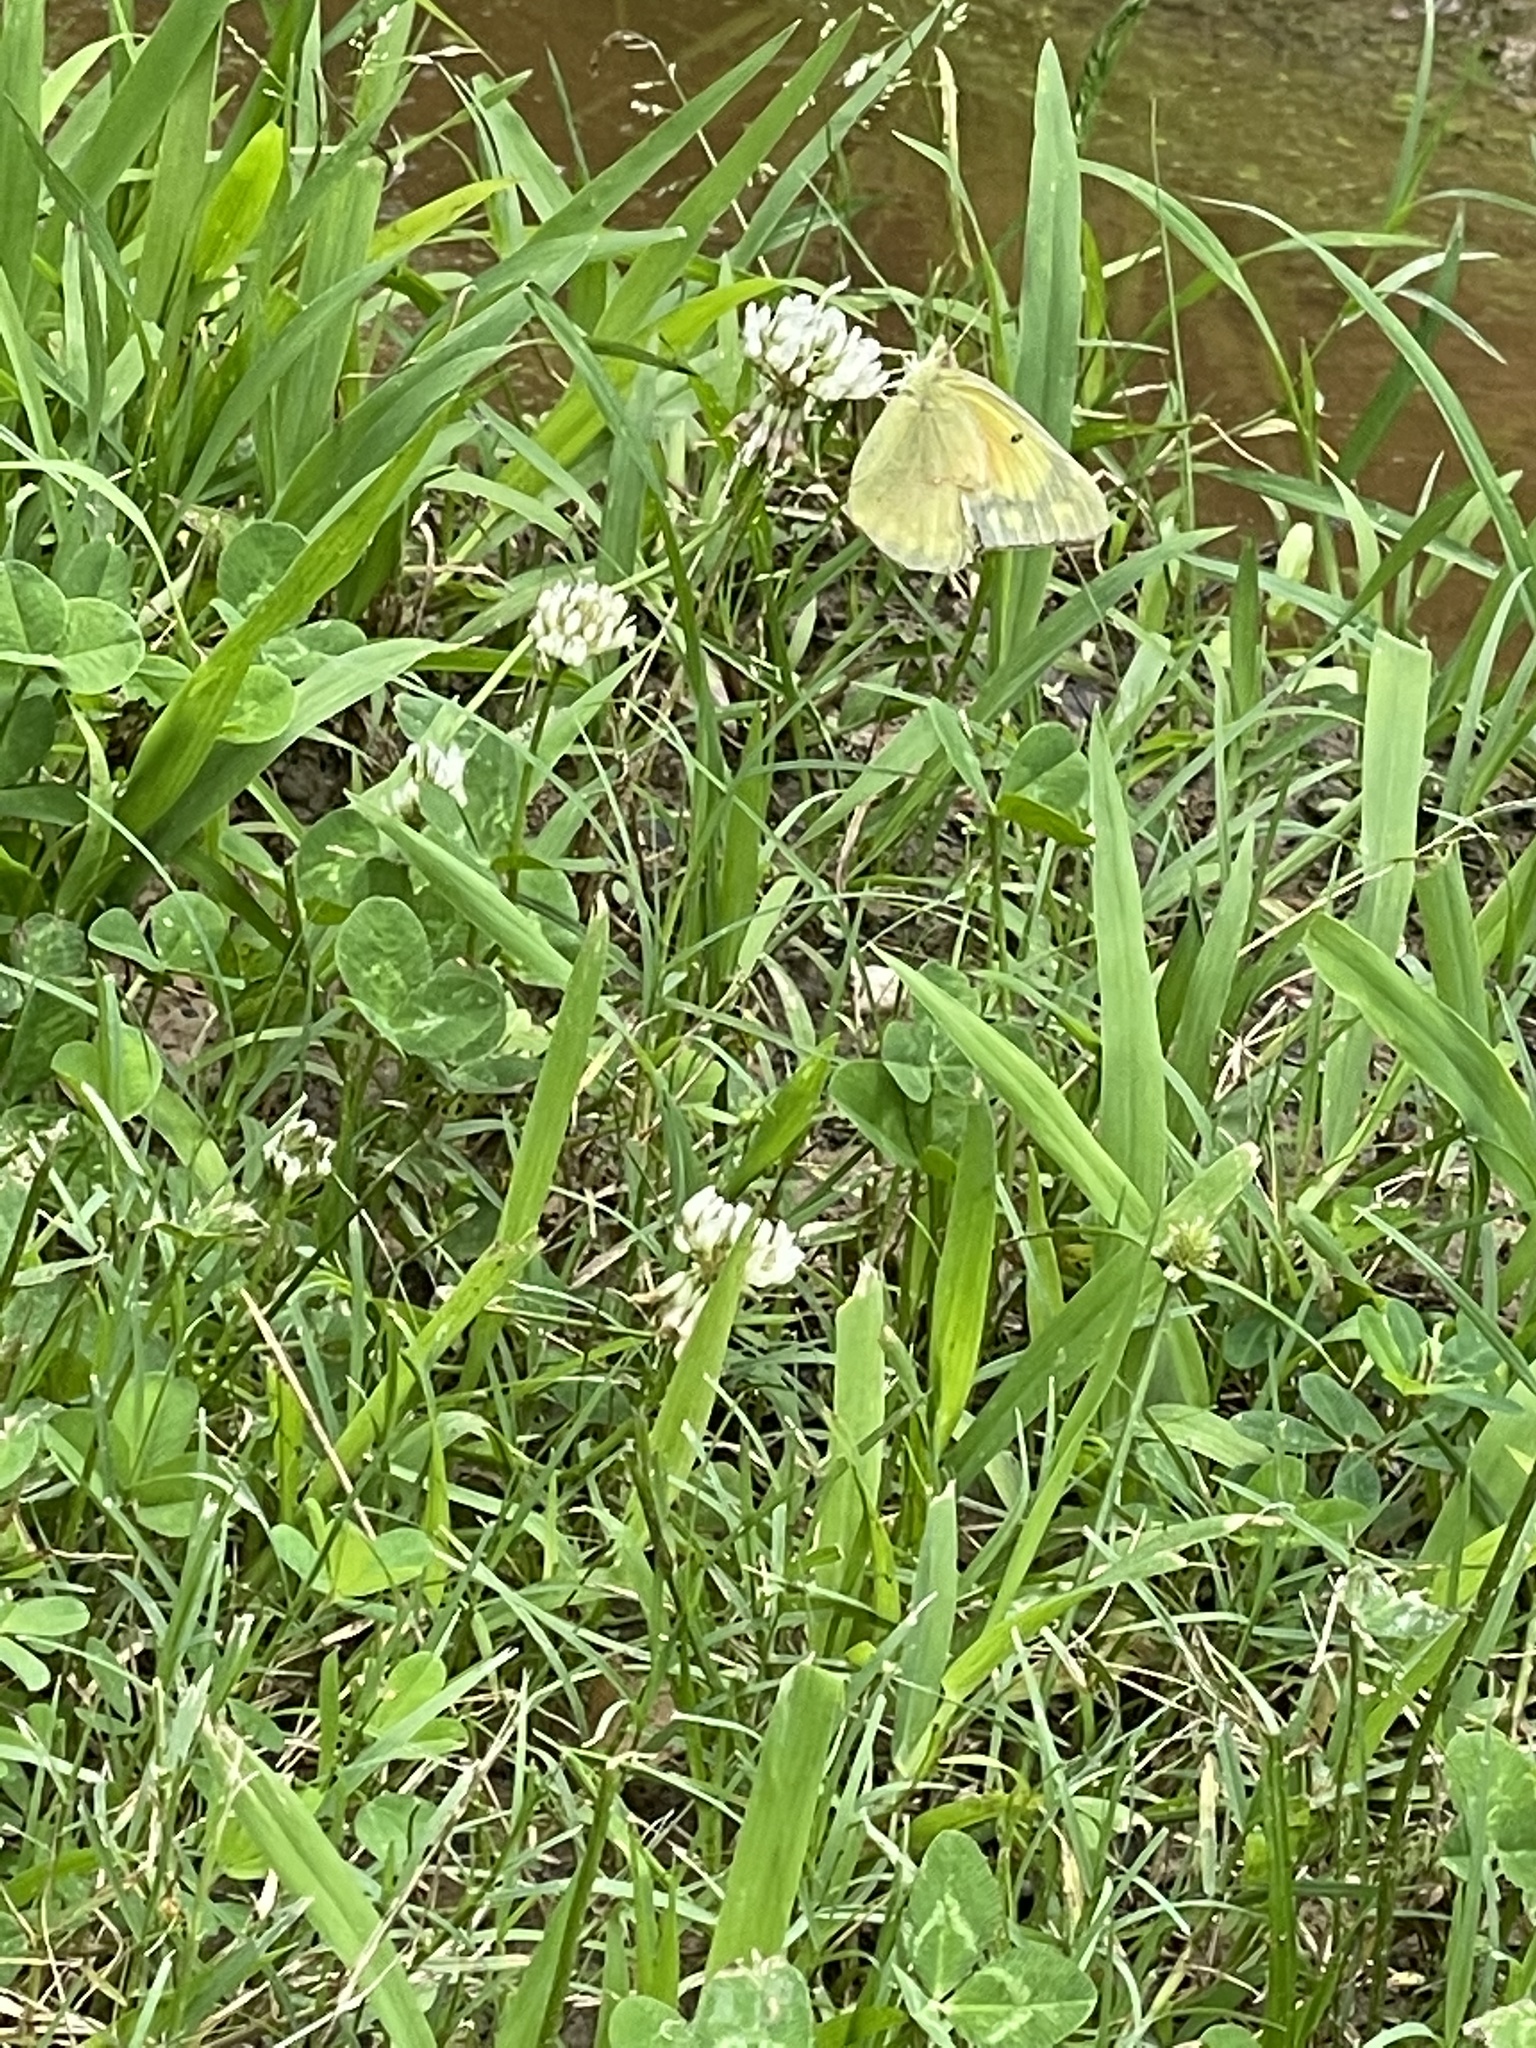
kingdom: Animalia
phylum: Arthropoda
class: Insecta
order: Lepidoptera
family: Pieridae
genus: Colias
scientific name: Colias eurytheme
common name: Alfalfa butterfly
